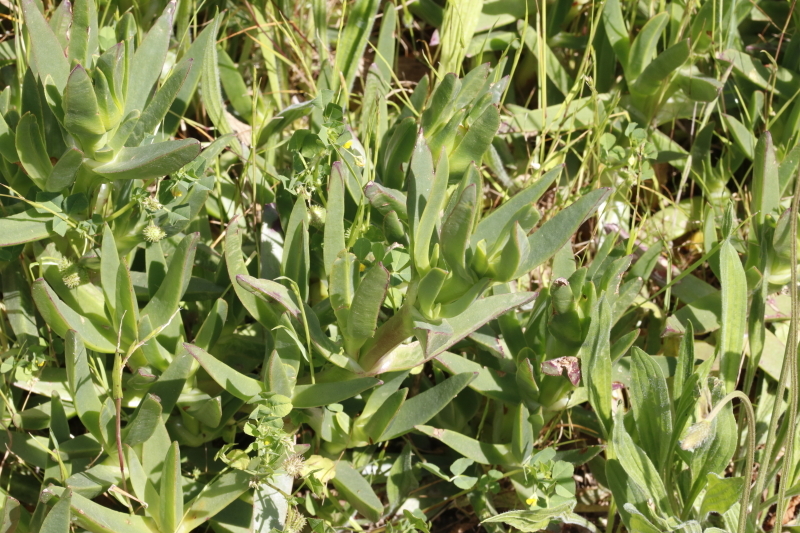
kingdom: Plantae
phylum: Tracheophyta
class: Magnoliopsida
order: Caryophyllales
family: Aizoaceae
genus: Carpobrotus
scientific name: Carpobrotus edulis
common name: Hottentot-fig
